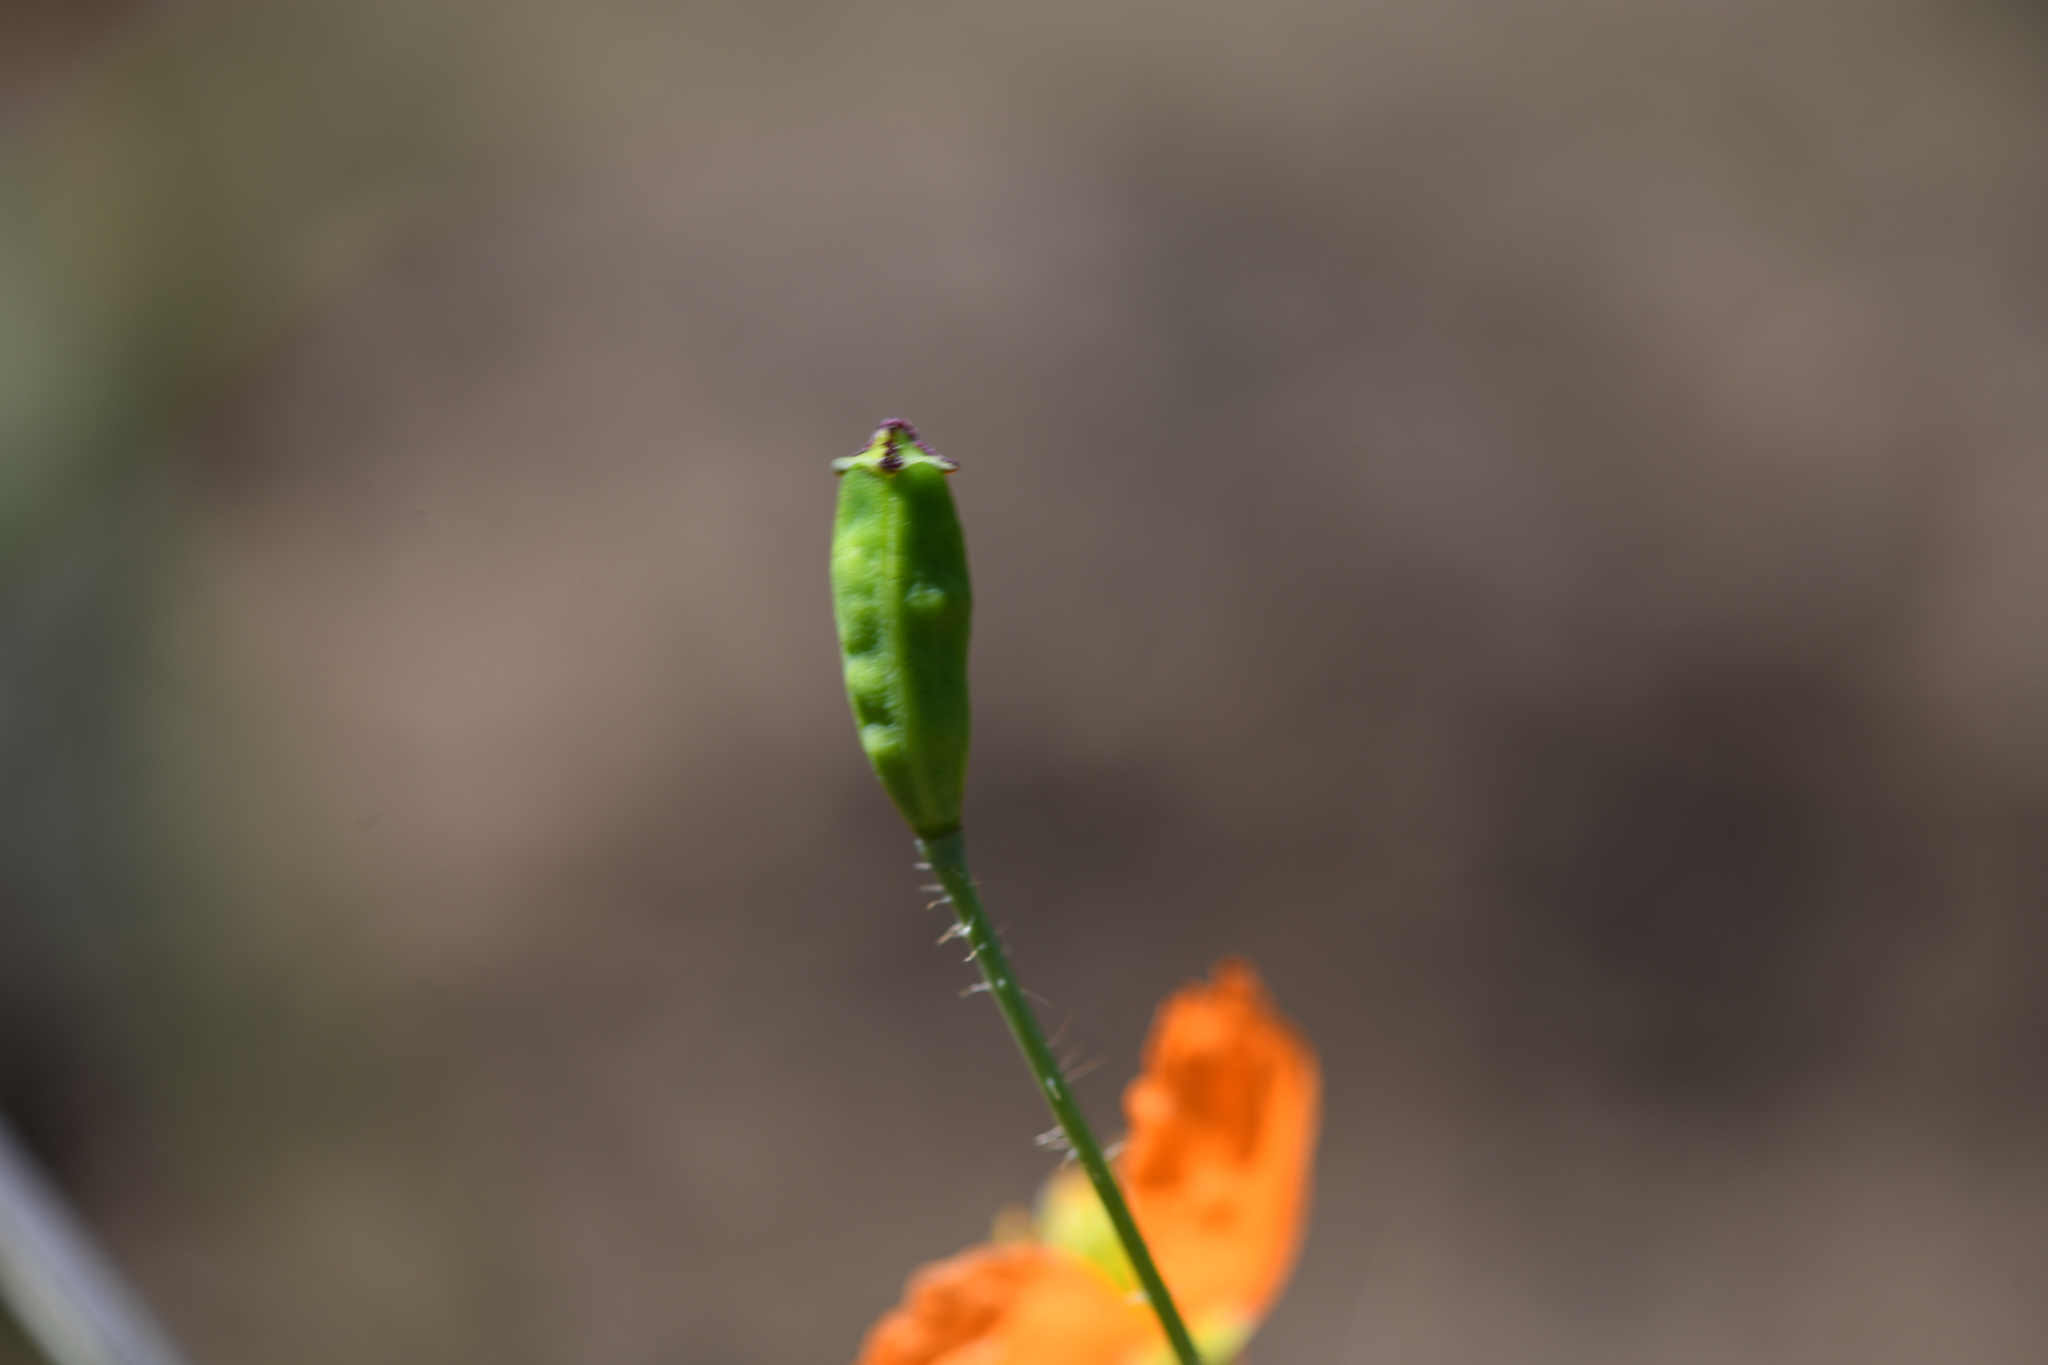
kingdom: Plantae
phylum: Tracheophyta
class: Magnoliopsida
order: Ranunculales
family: Papaveraceae
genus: Papaver
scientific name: Papaver californicum
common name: Fire poppy
